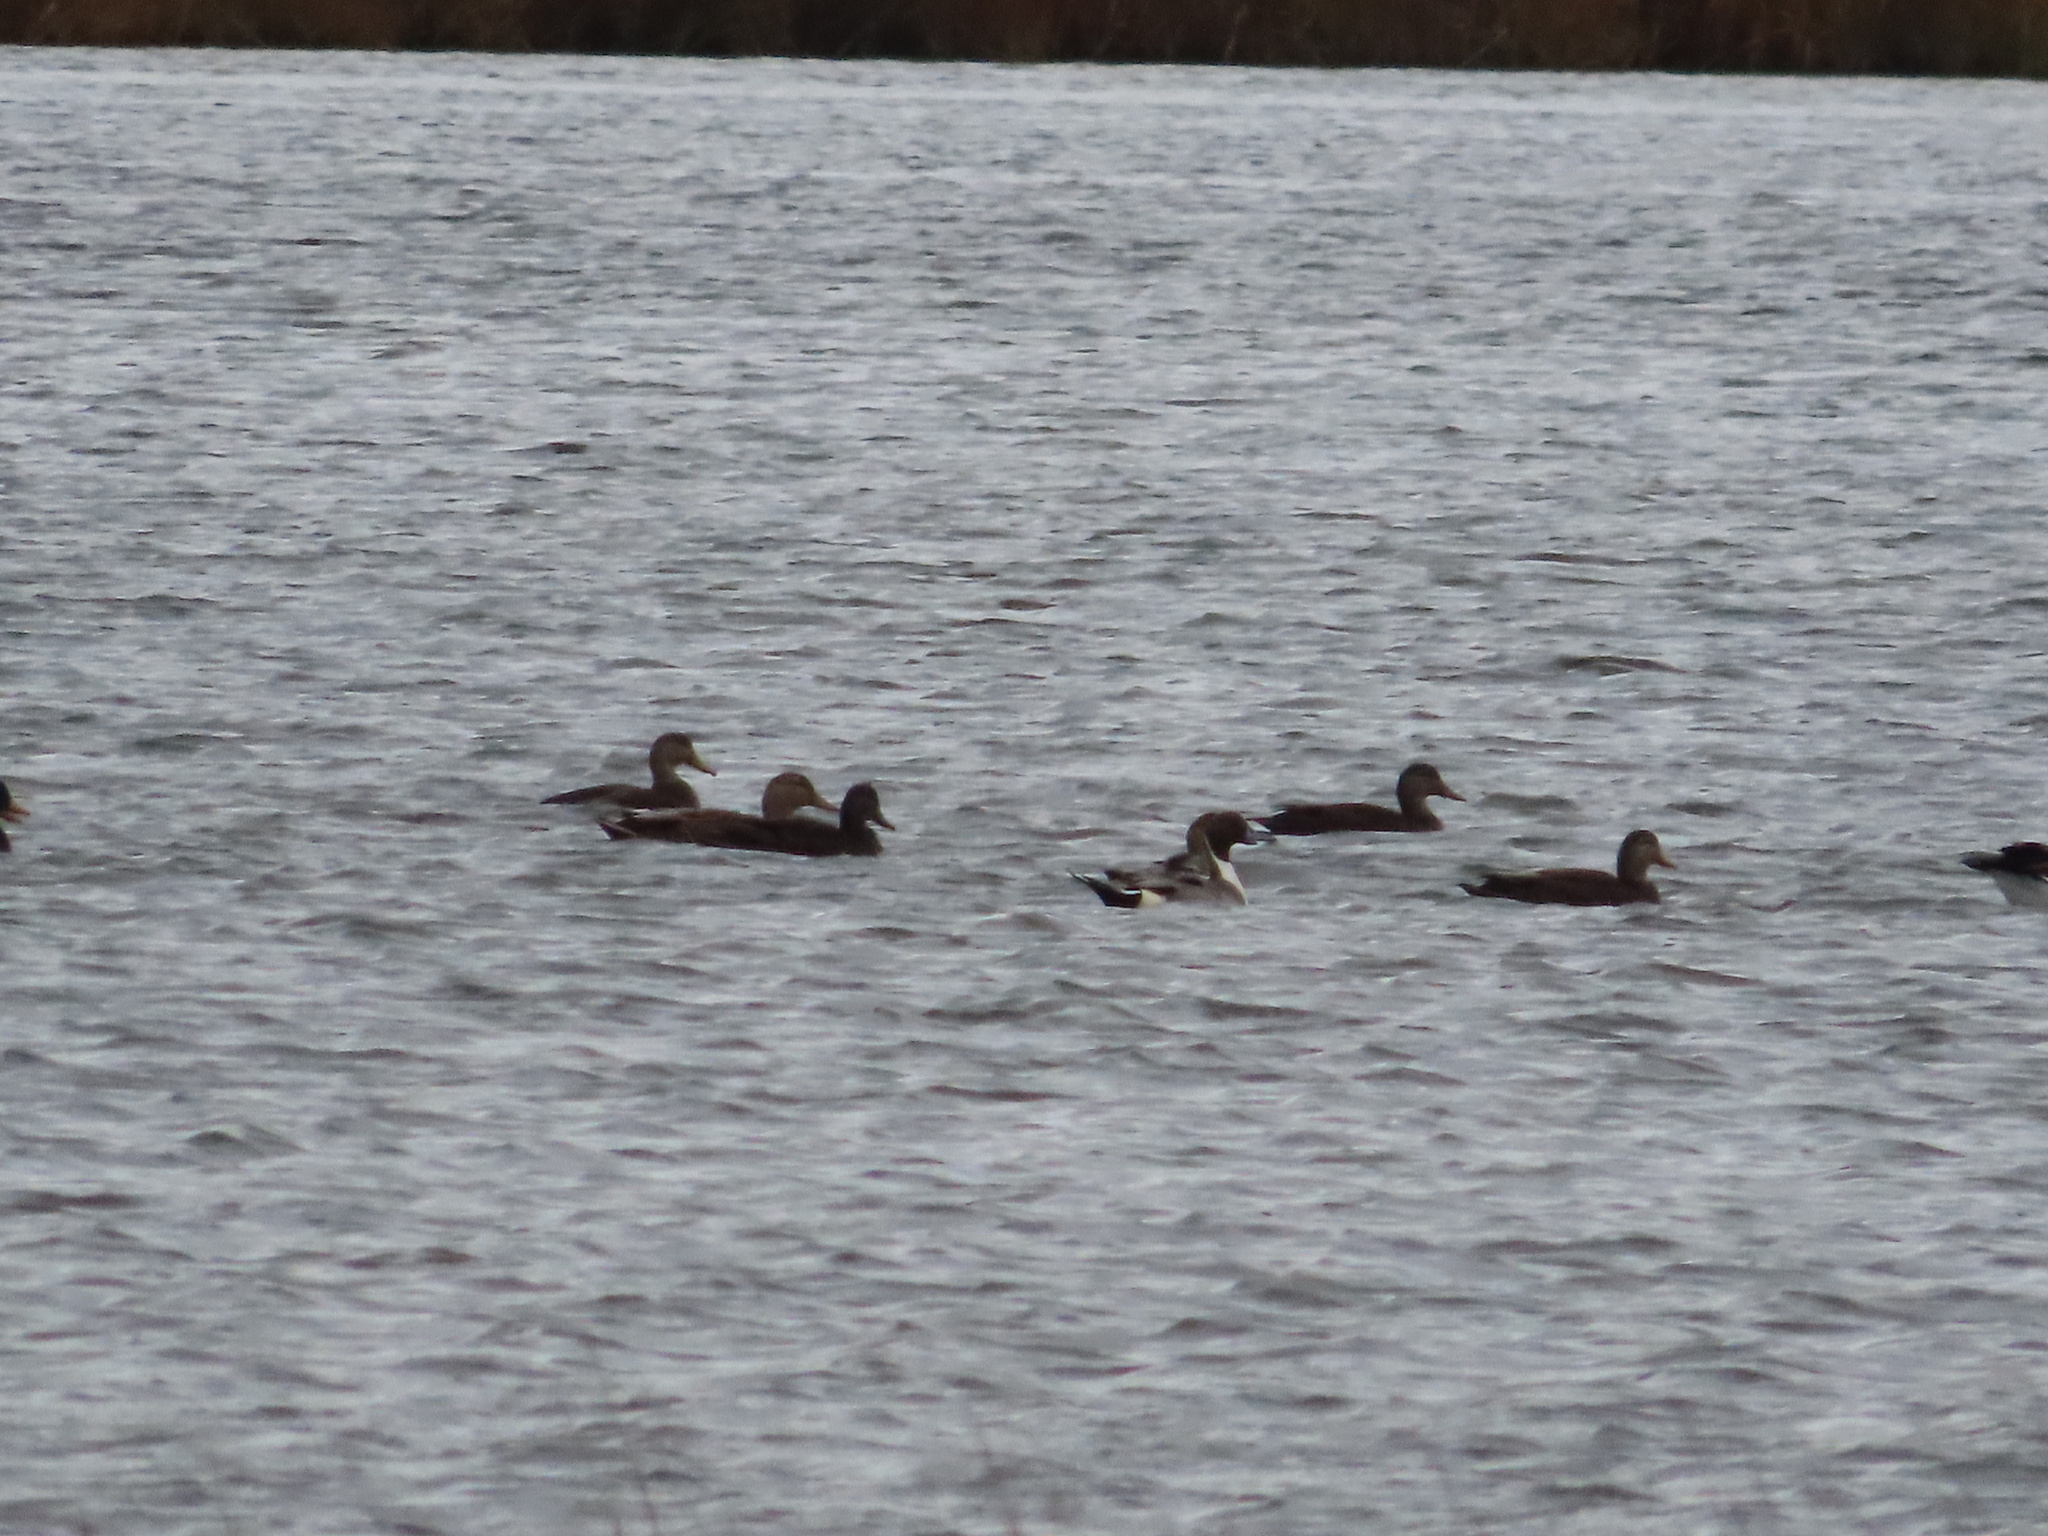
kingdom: Animalia
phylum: Chordata
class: Aves
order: Anseriformes
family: Anatidae
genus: Anas
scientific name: Anas acuta
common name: Northern pintail
